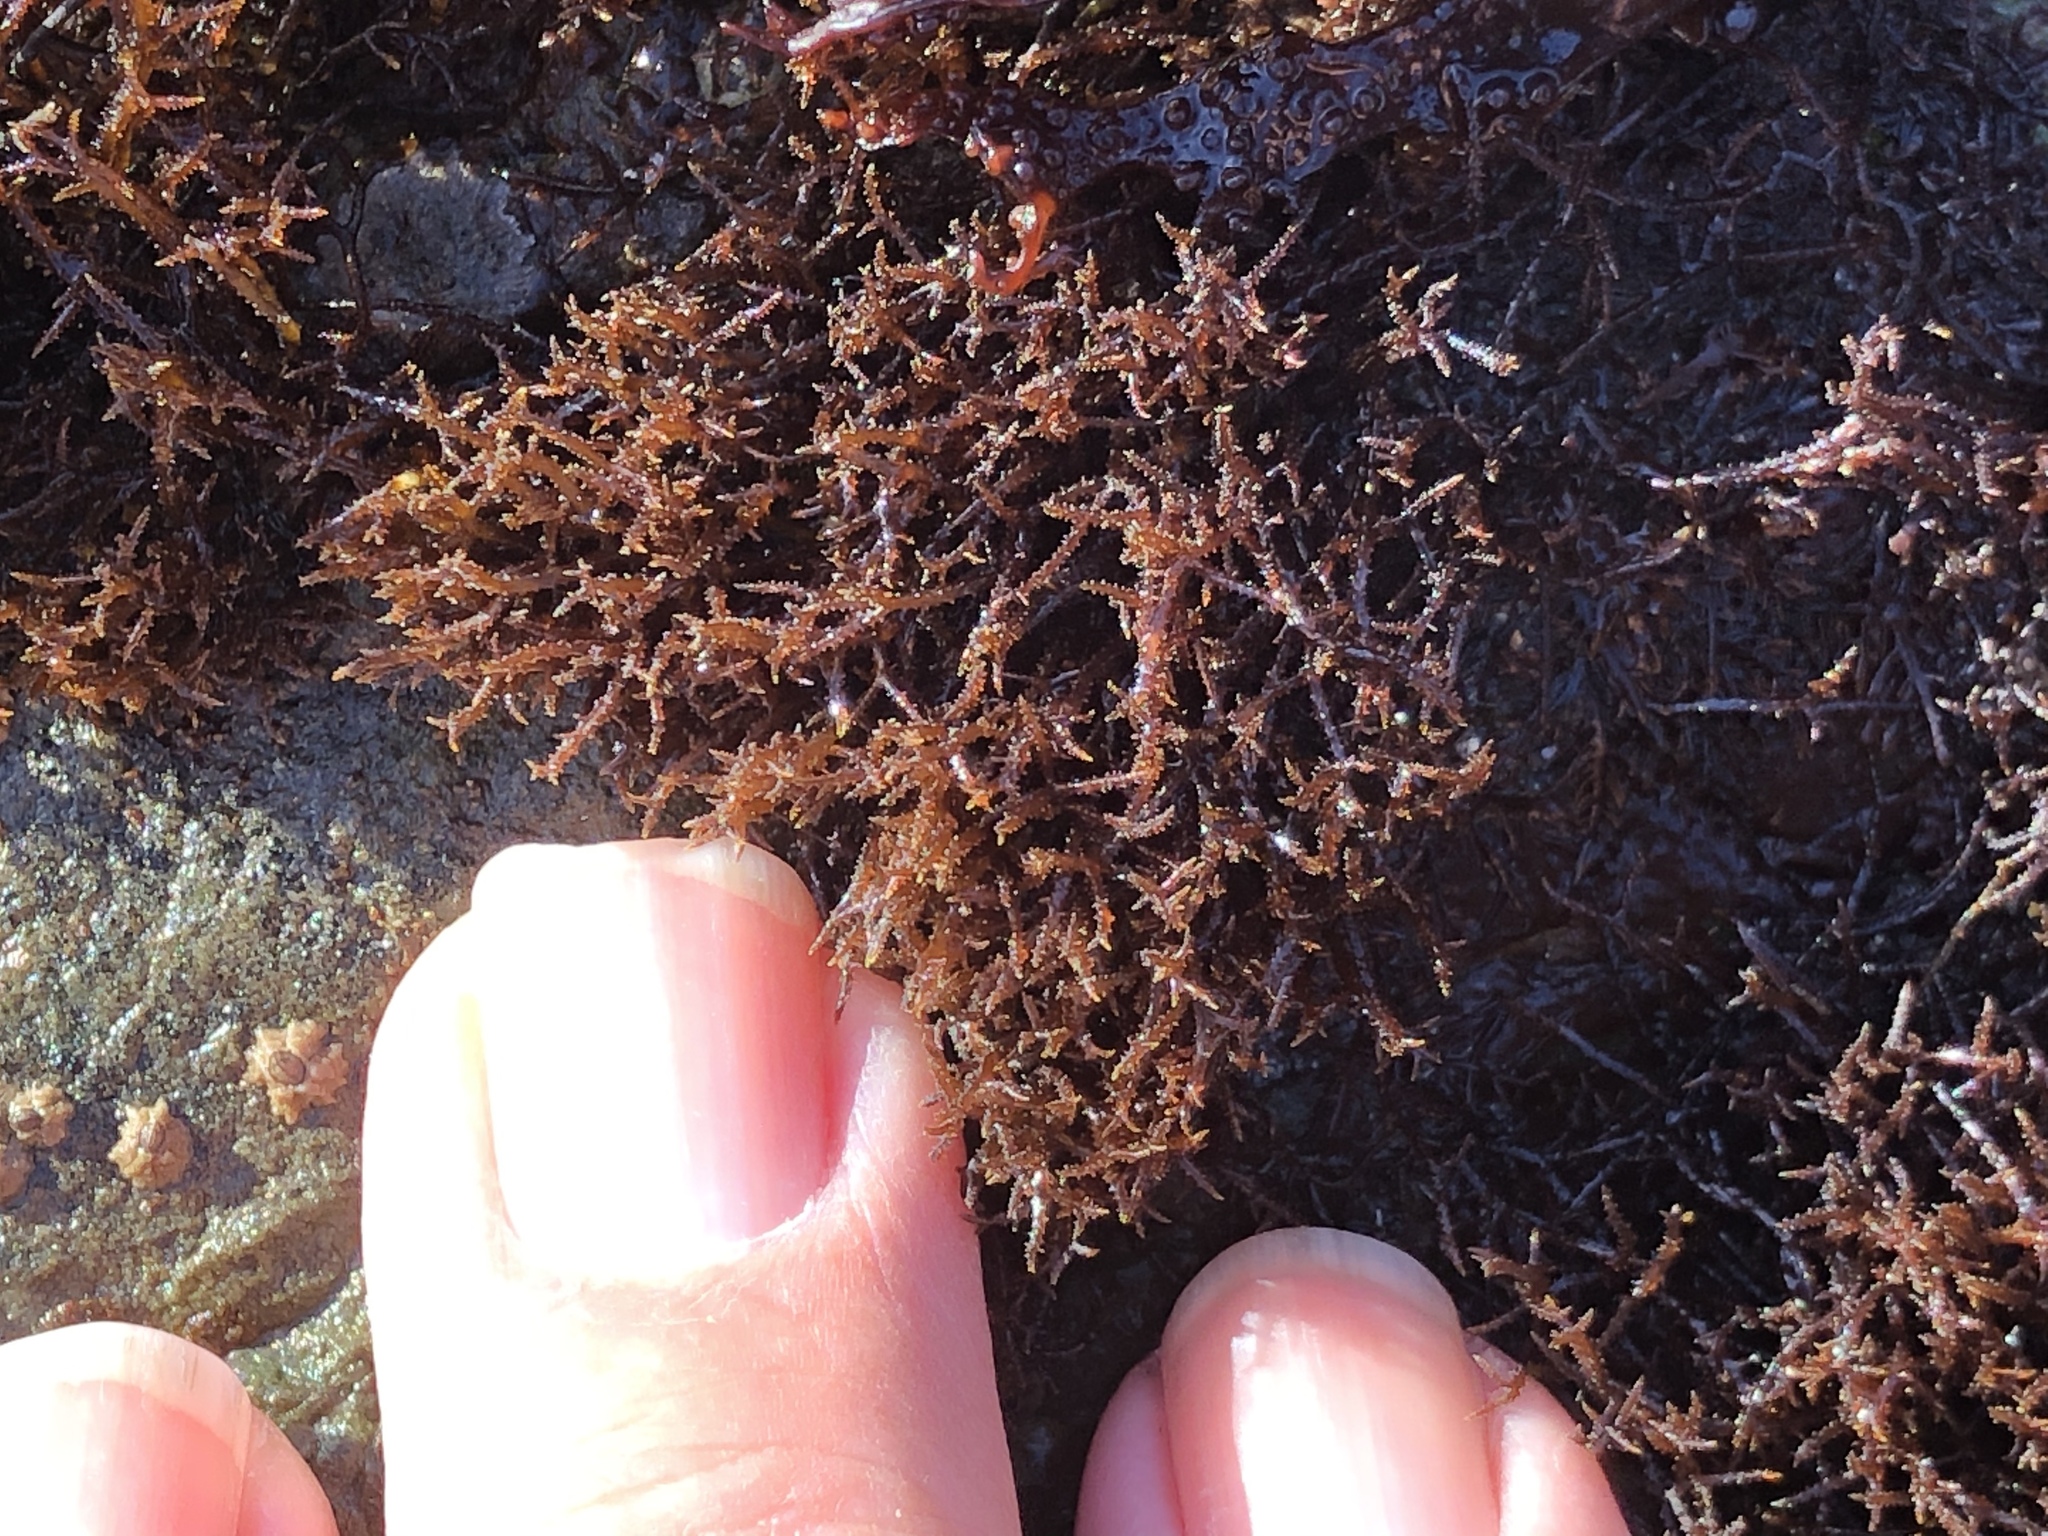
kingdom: Plantae
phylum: Rhodophyta
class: Florideophyceae
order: Gigartinales
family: Endocladiaceae
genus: Endocladia
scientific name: Endocladia muricata
